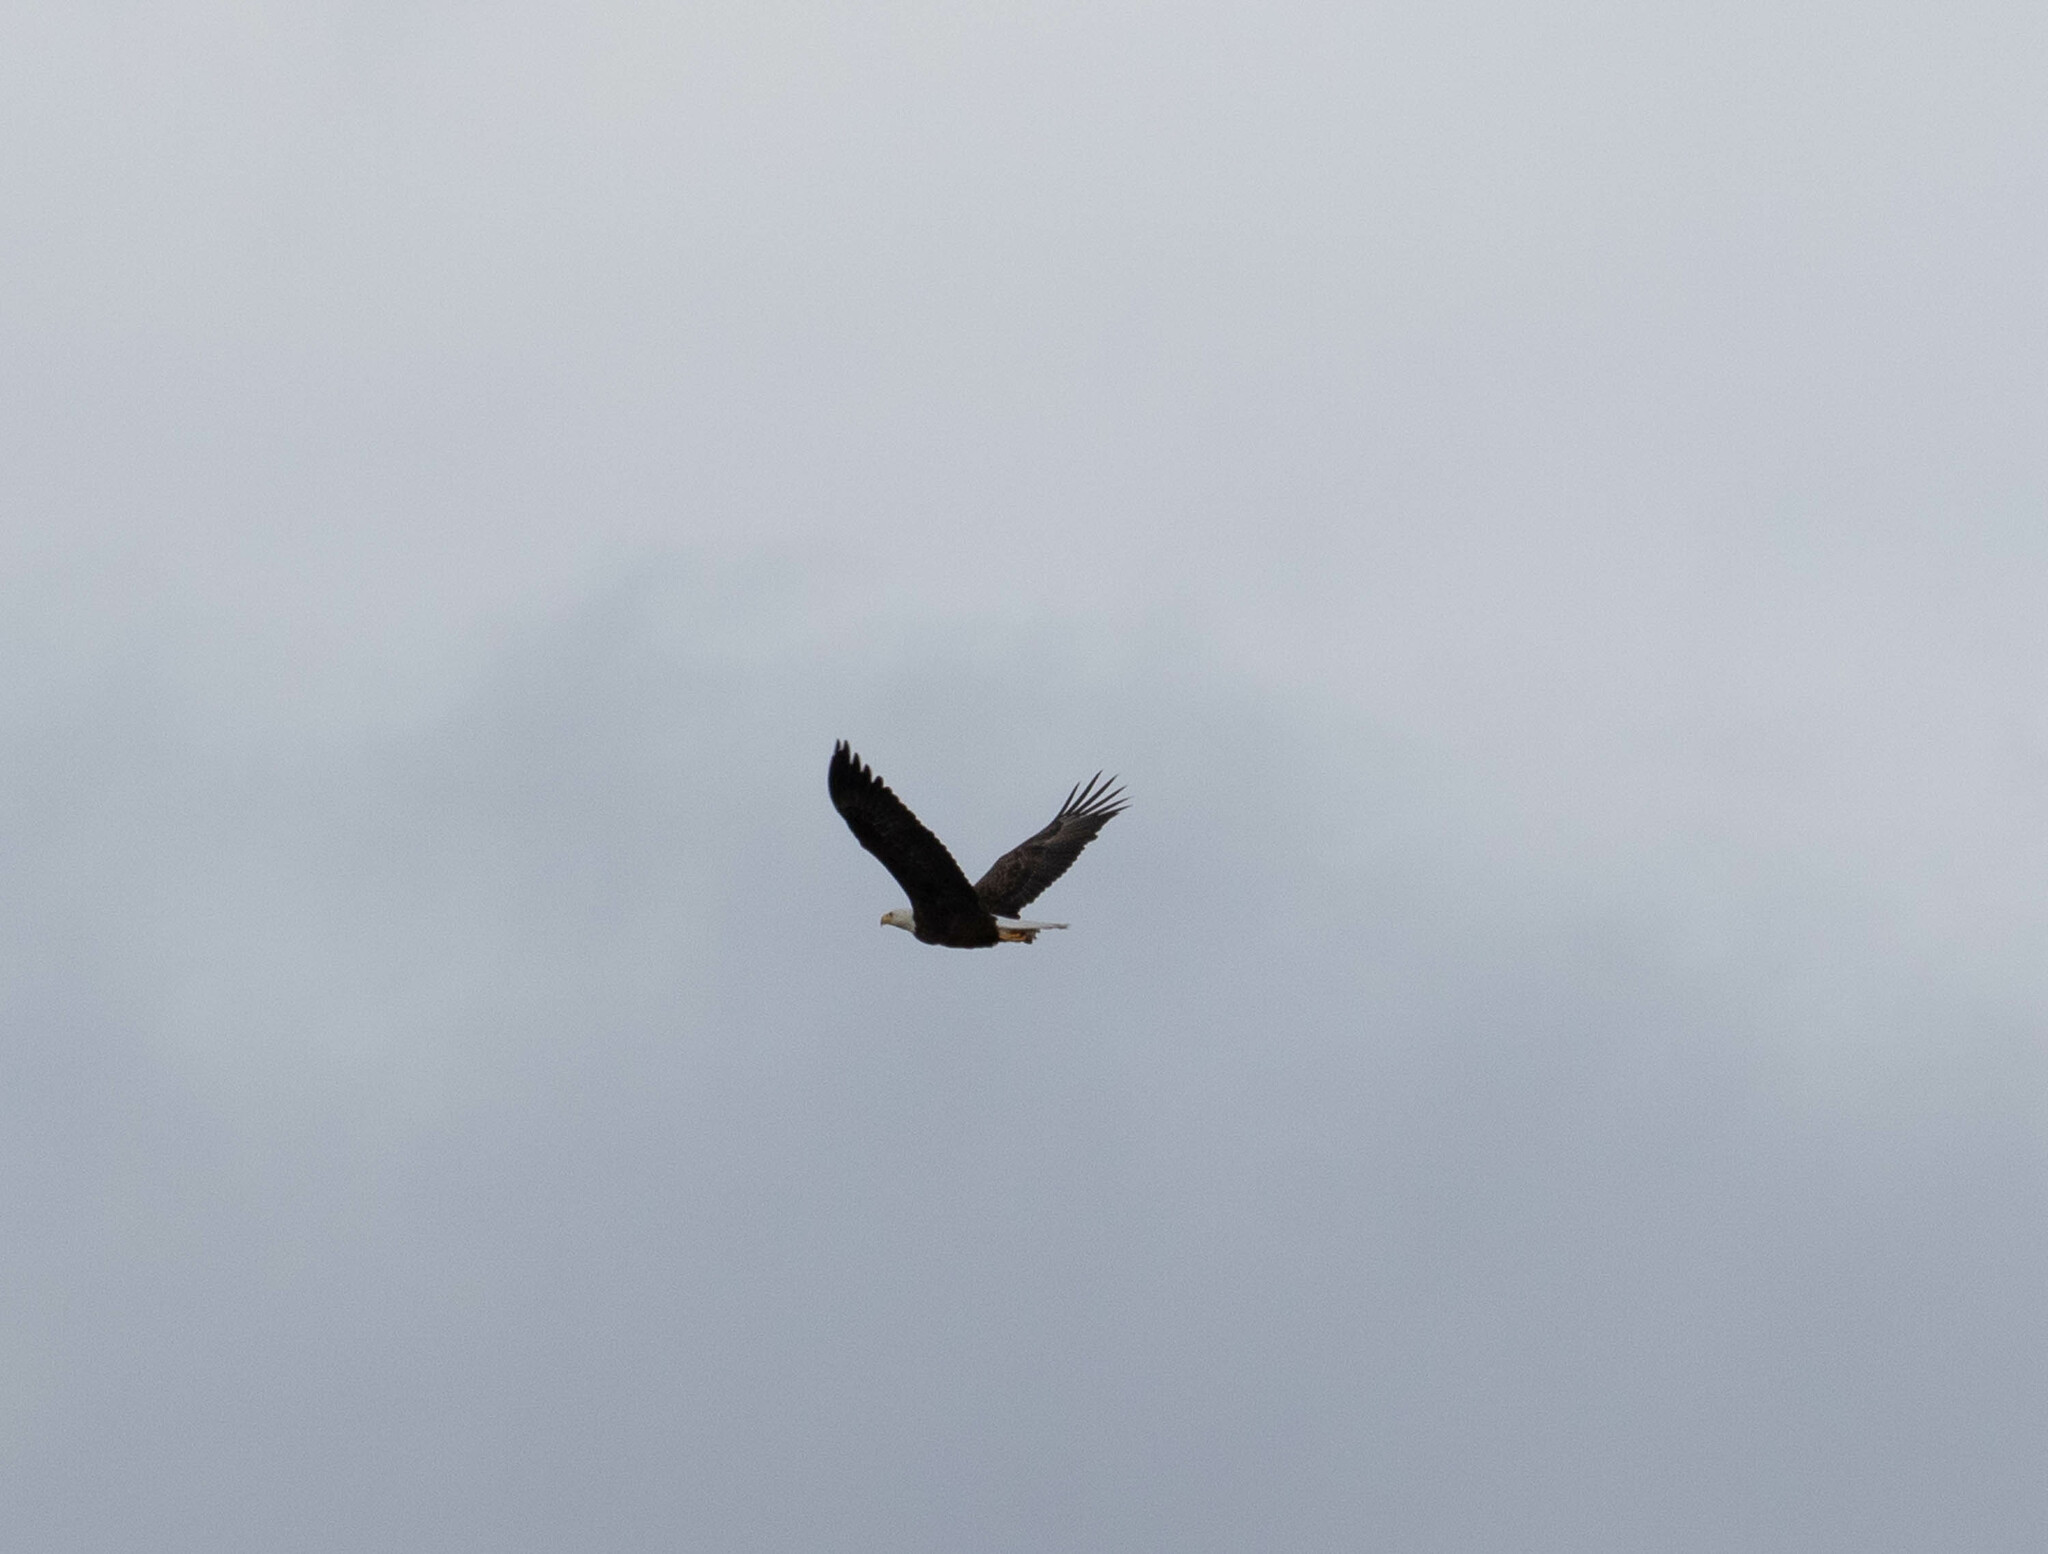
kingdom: Animalia
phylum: Chordata
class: Aves
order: Accipitriformes
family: Accipitridae
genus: Haliaeetus
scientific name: Haliaeetus leucocephalus
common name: Bald eagle
